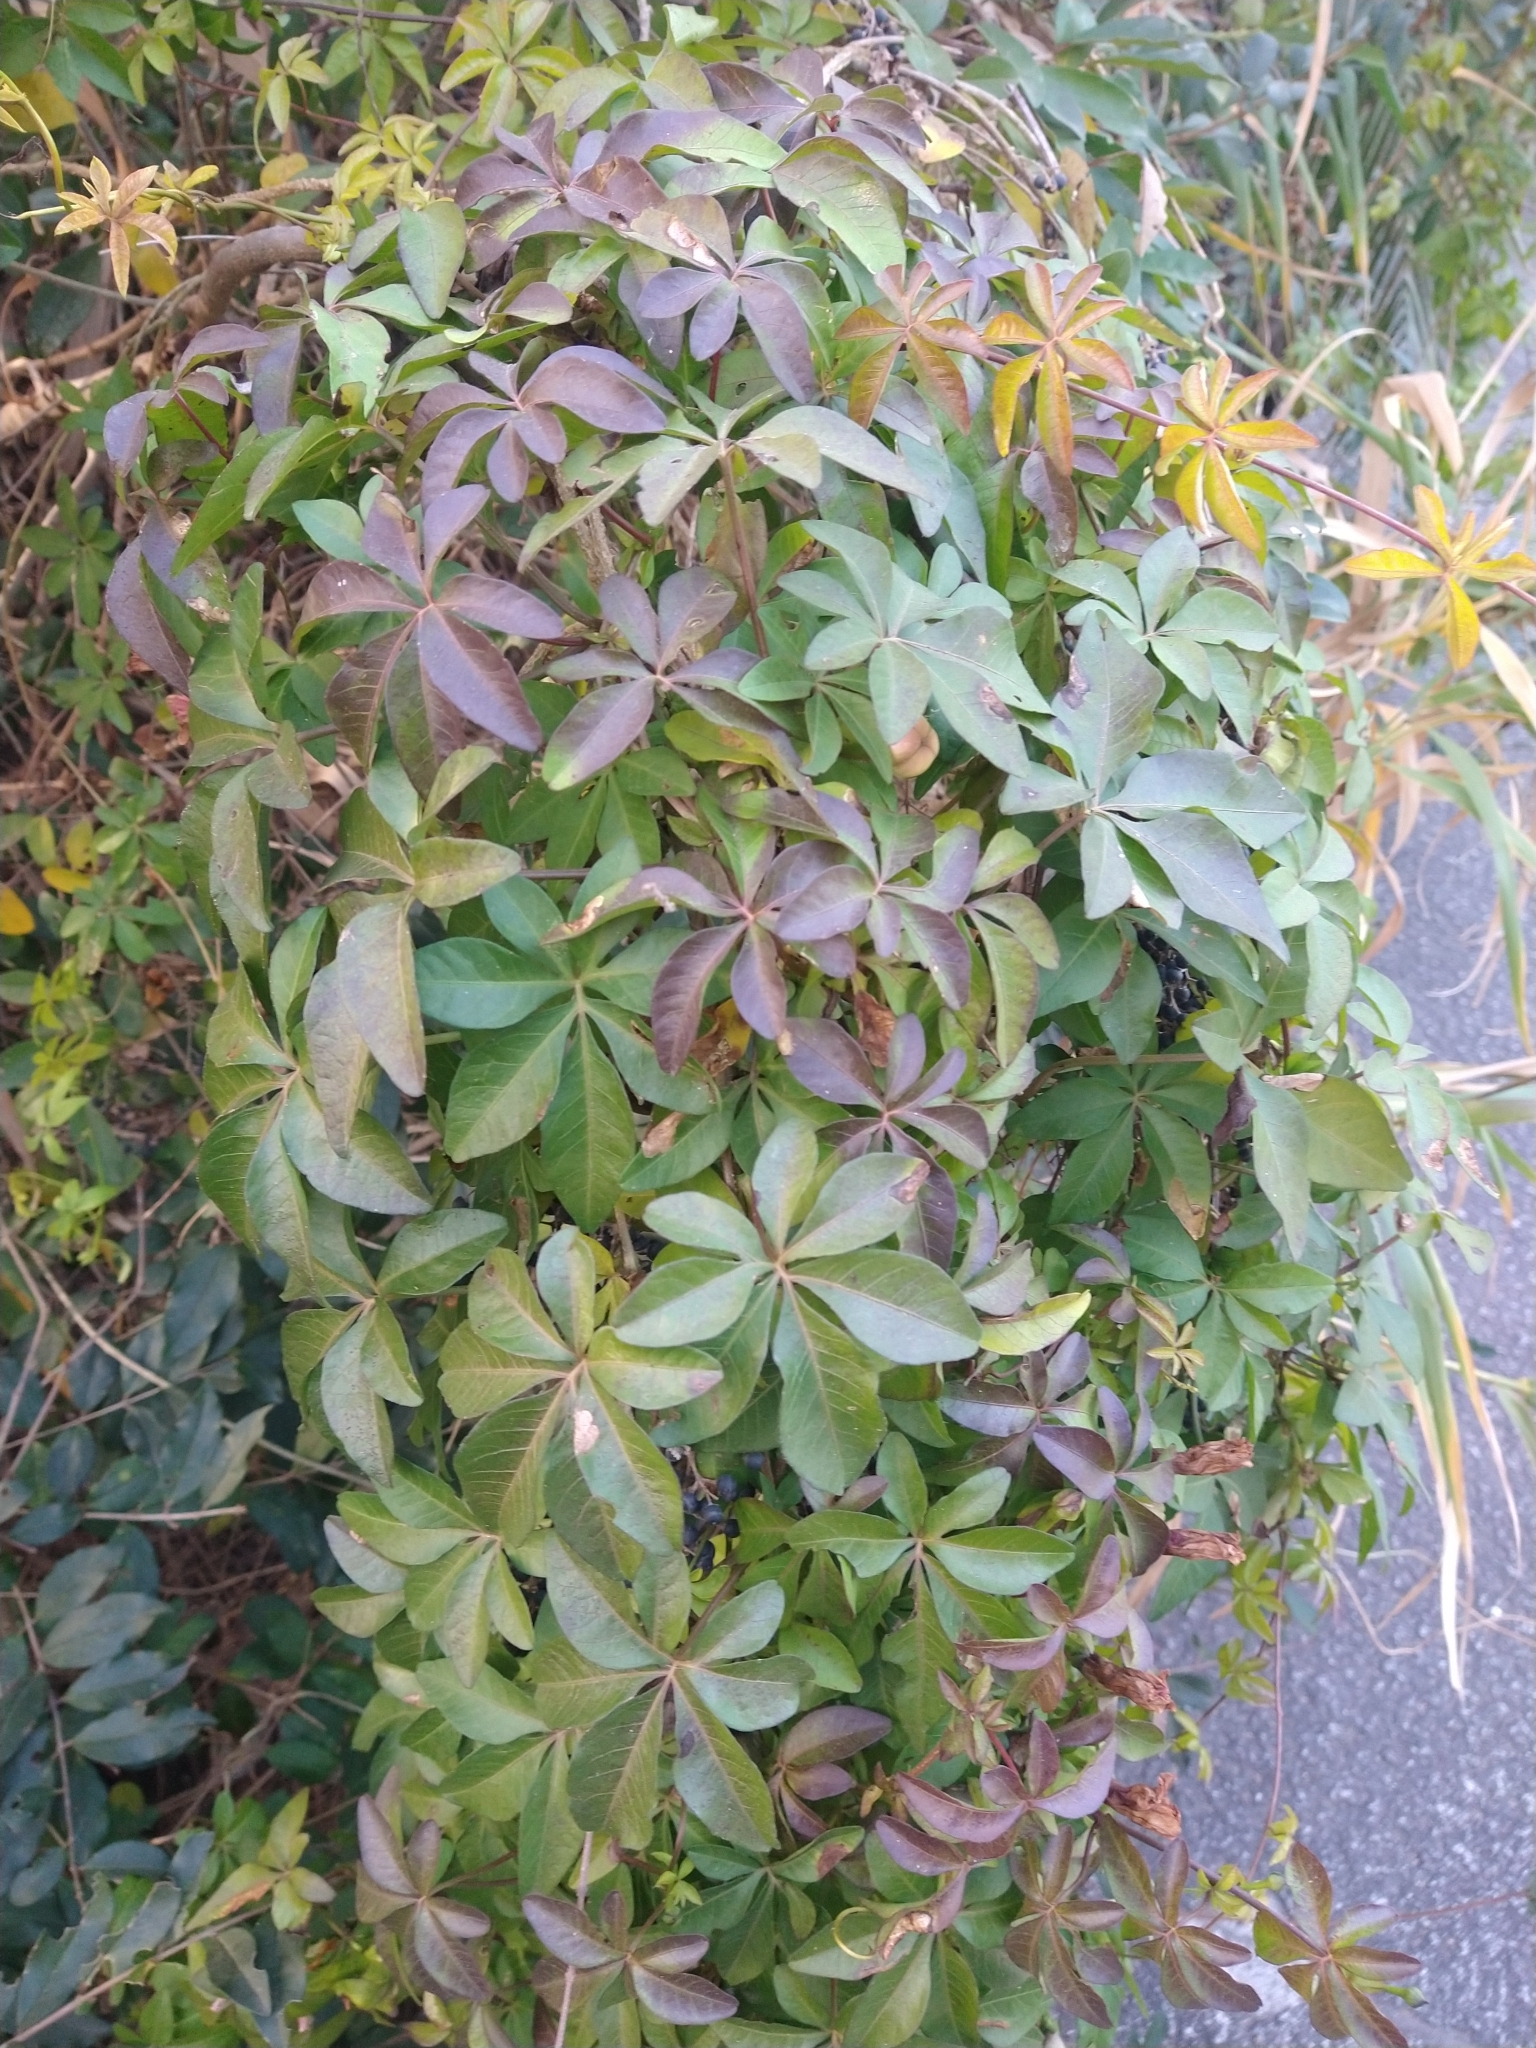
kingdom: Plantae
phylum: Tracheophyta
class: Magnoliopsida
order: Solanales
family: Convolvulaceae
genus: Ipomoea
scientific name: Ipomoea cairica
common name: Mile a minute vine
